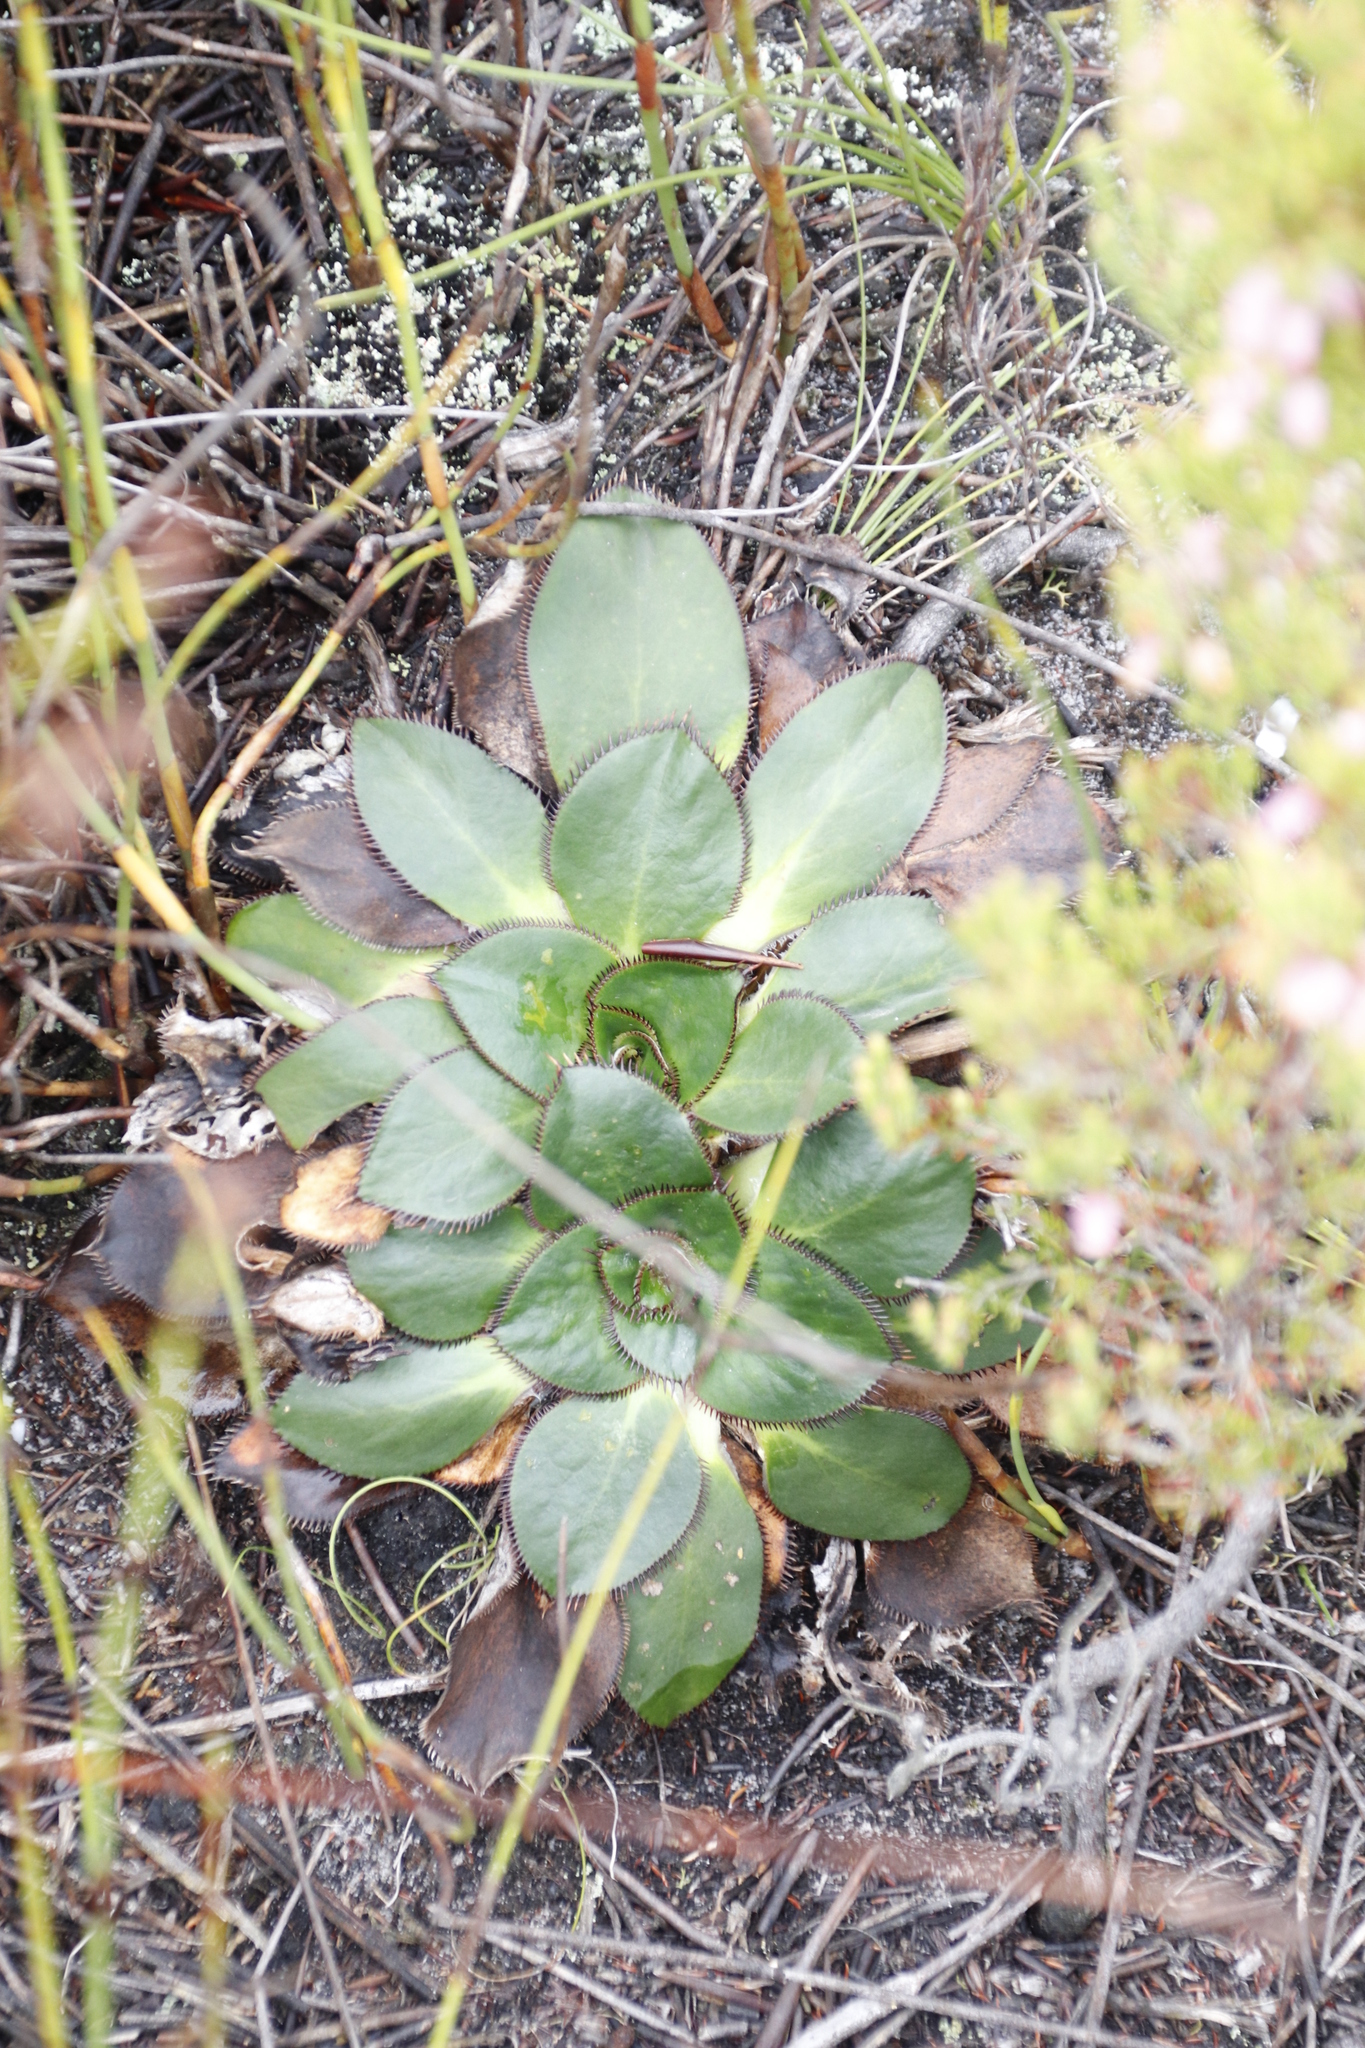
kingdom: Plantae
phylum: Tracheophyta
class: Magnoliopsida
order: Apiales
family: Apiaceae
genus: Hermas
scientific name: Hermas ciliata
